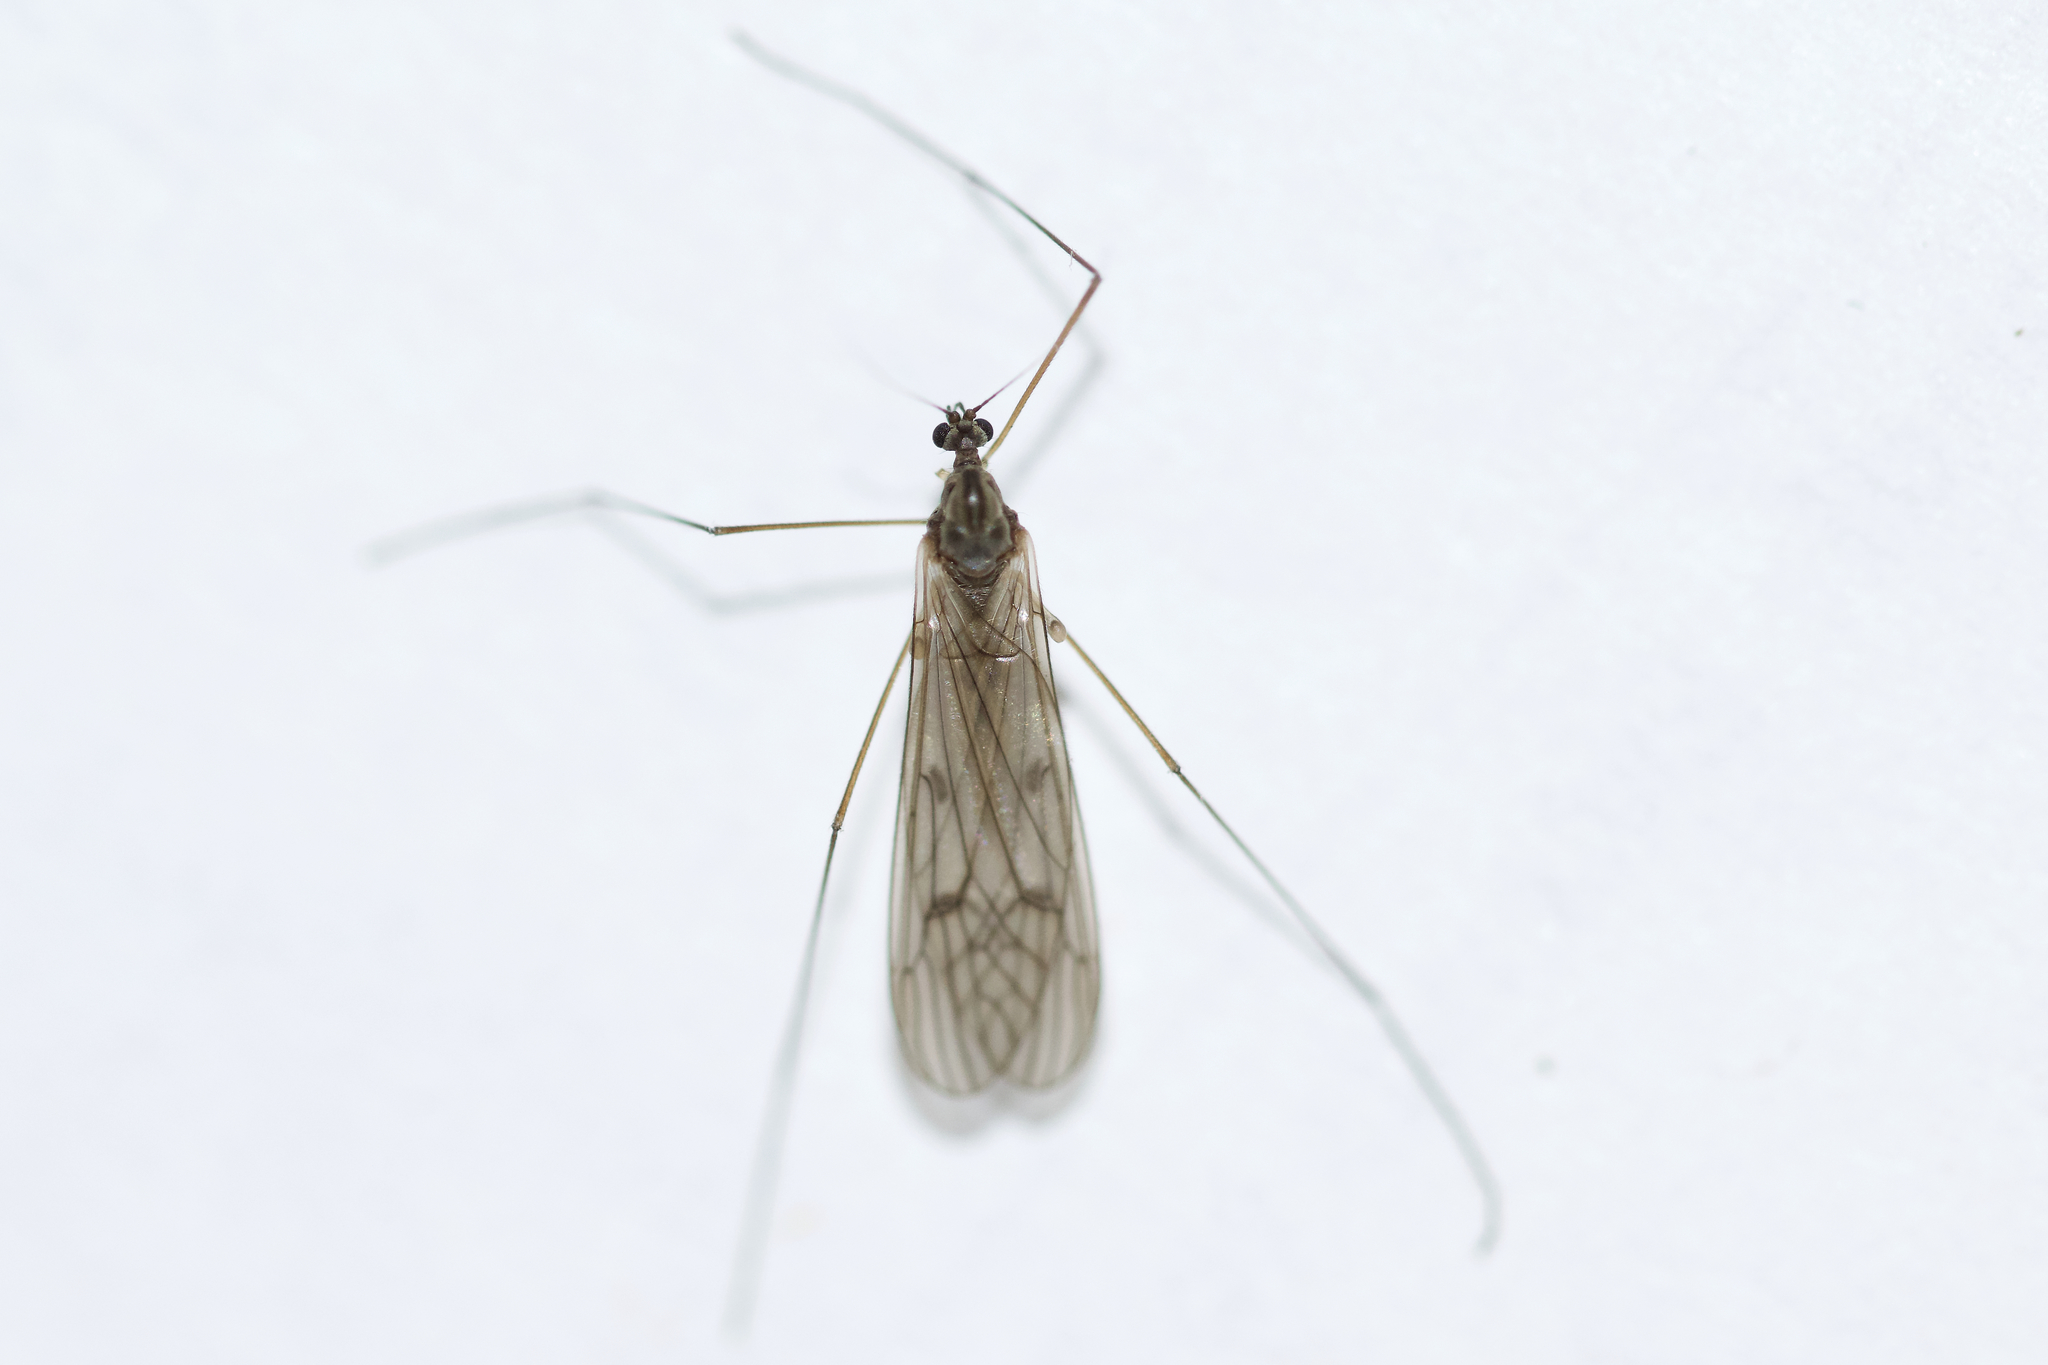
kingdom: Animalia
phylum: Arthropoda
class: Insecta
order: Diptera
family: Trichoceridae
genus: Trichocera
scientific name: Trichocera bimacula
